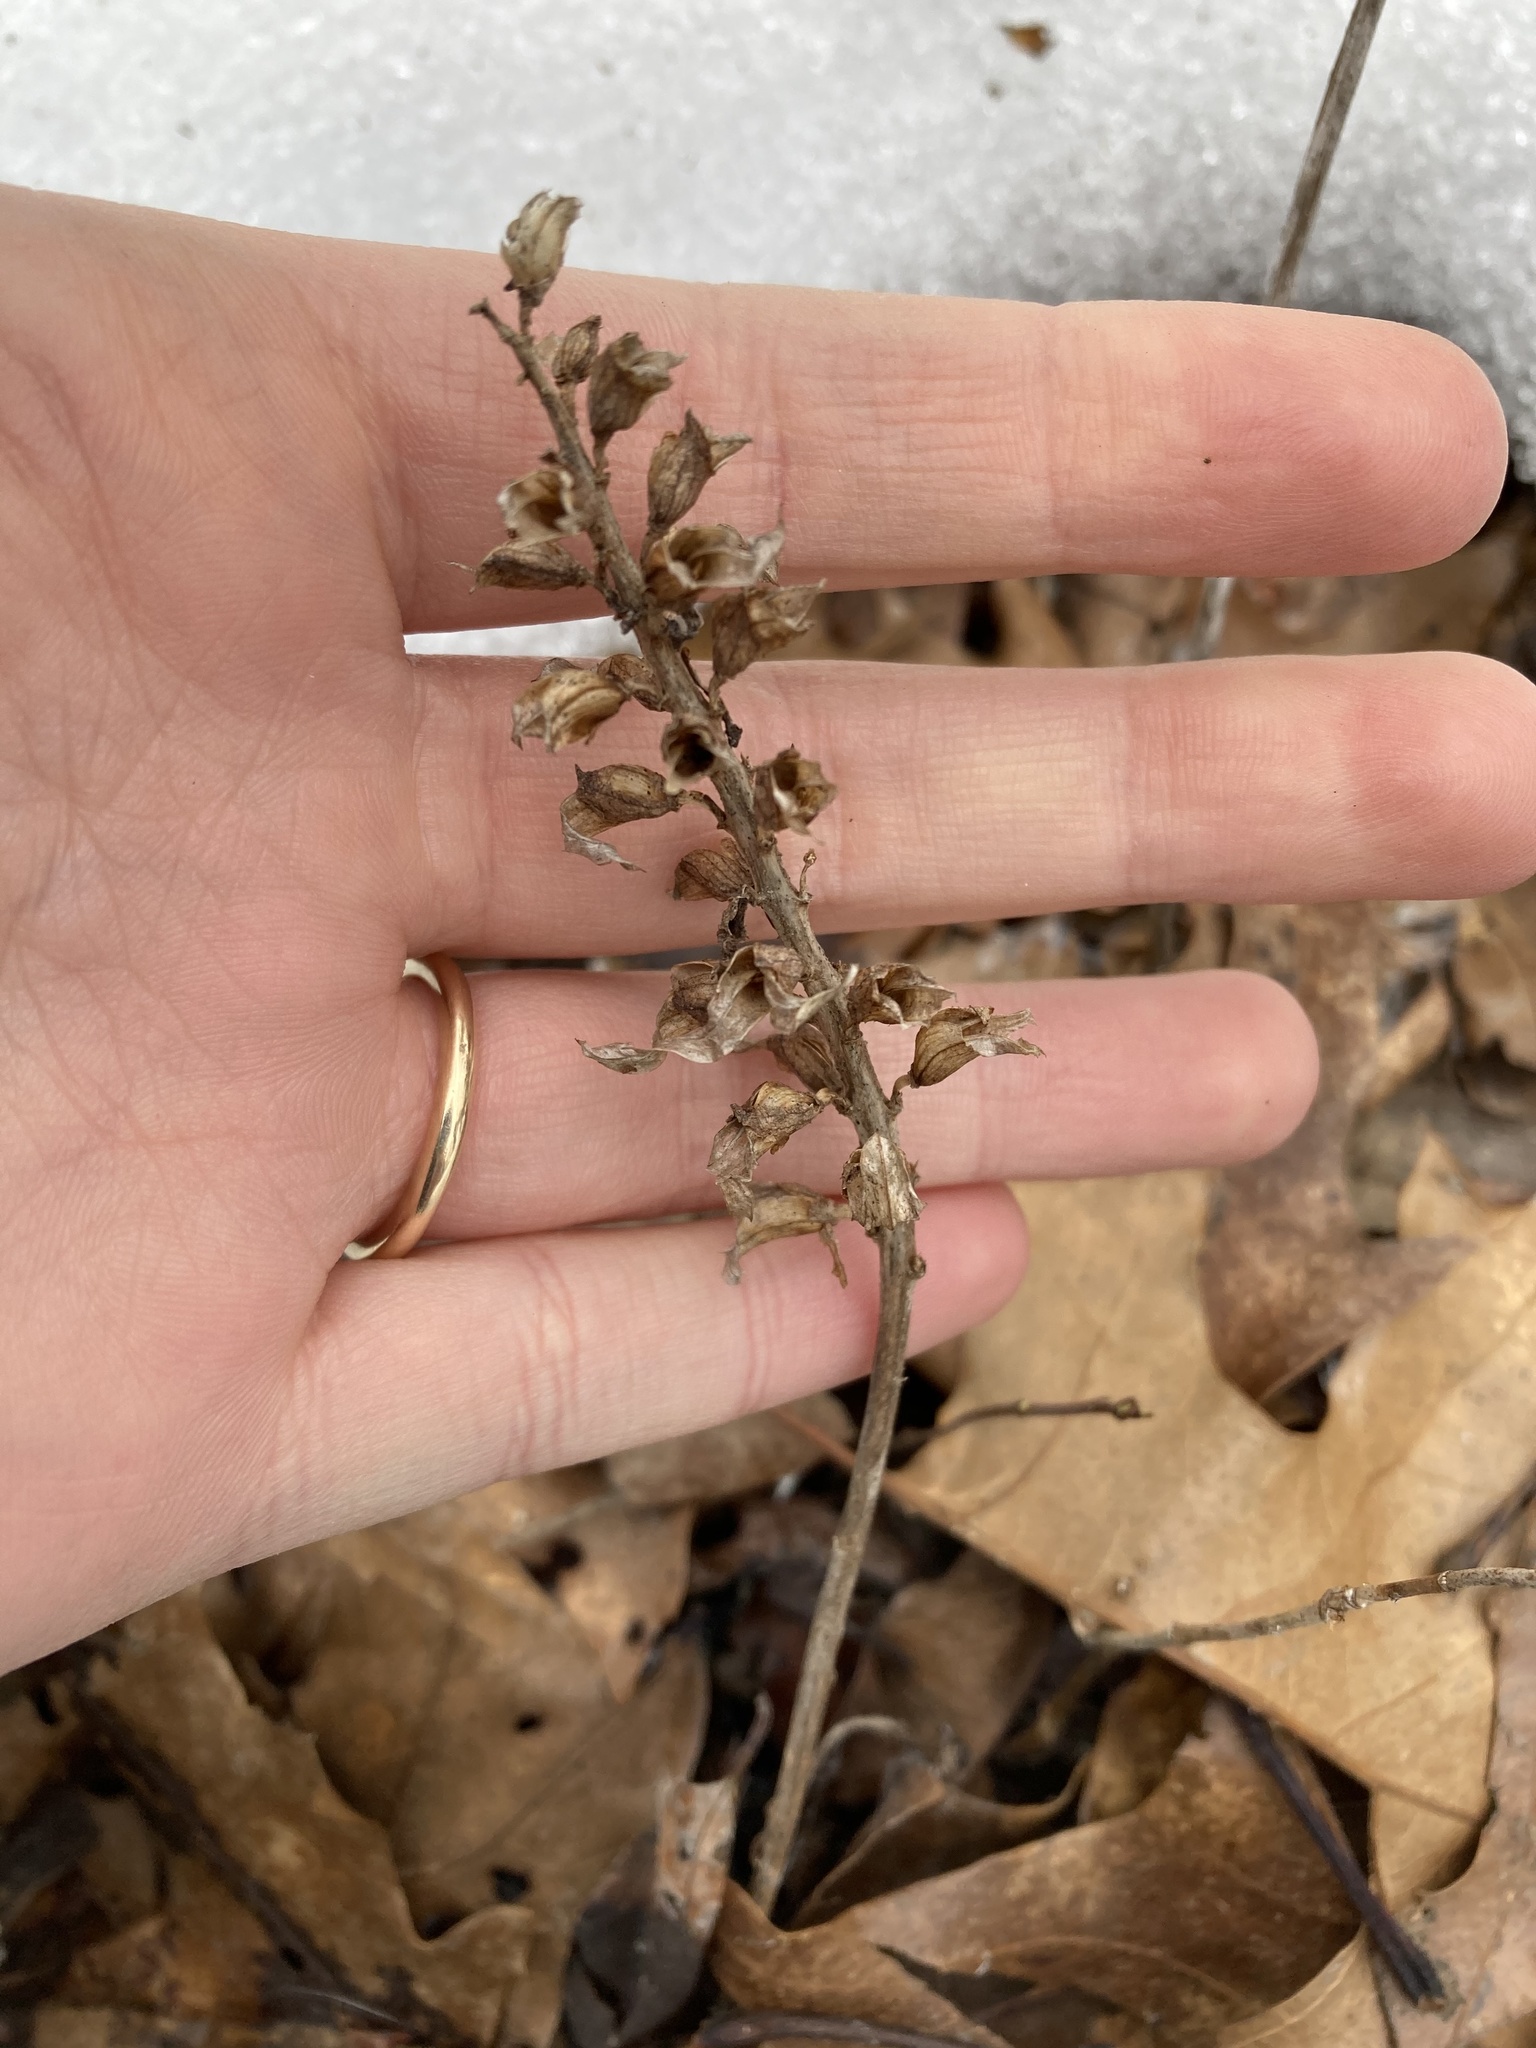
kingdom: Plantae
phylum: Tracheophyta
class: Magnoliopsida
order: Lamiales
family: Orobanchaceae
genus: Pedicularis
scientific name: Pedicularis canadensis
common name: Early lousewort
